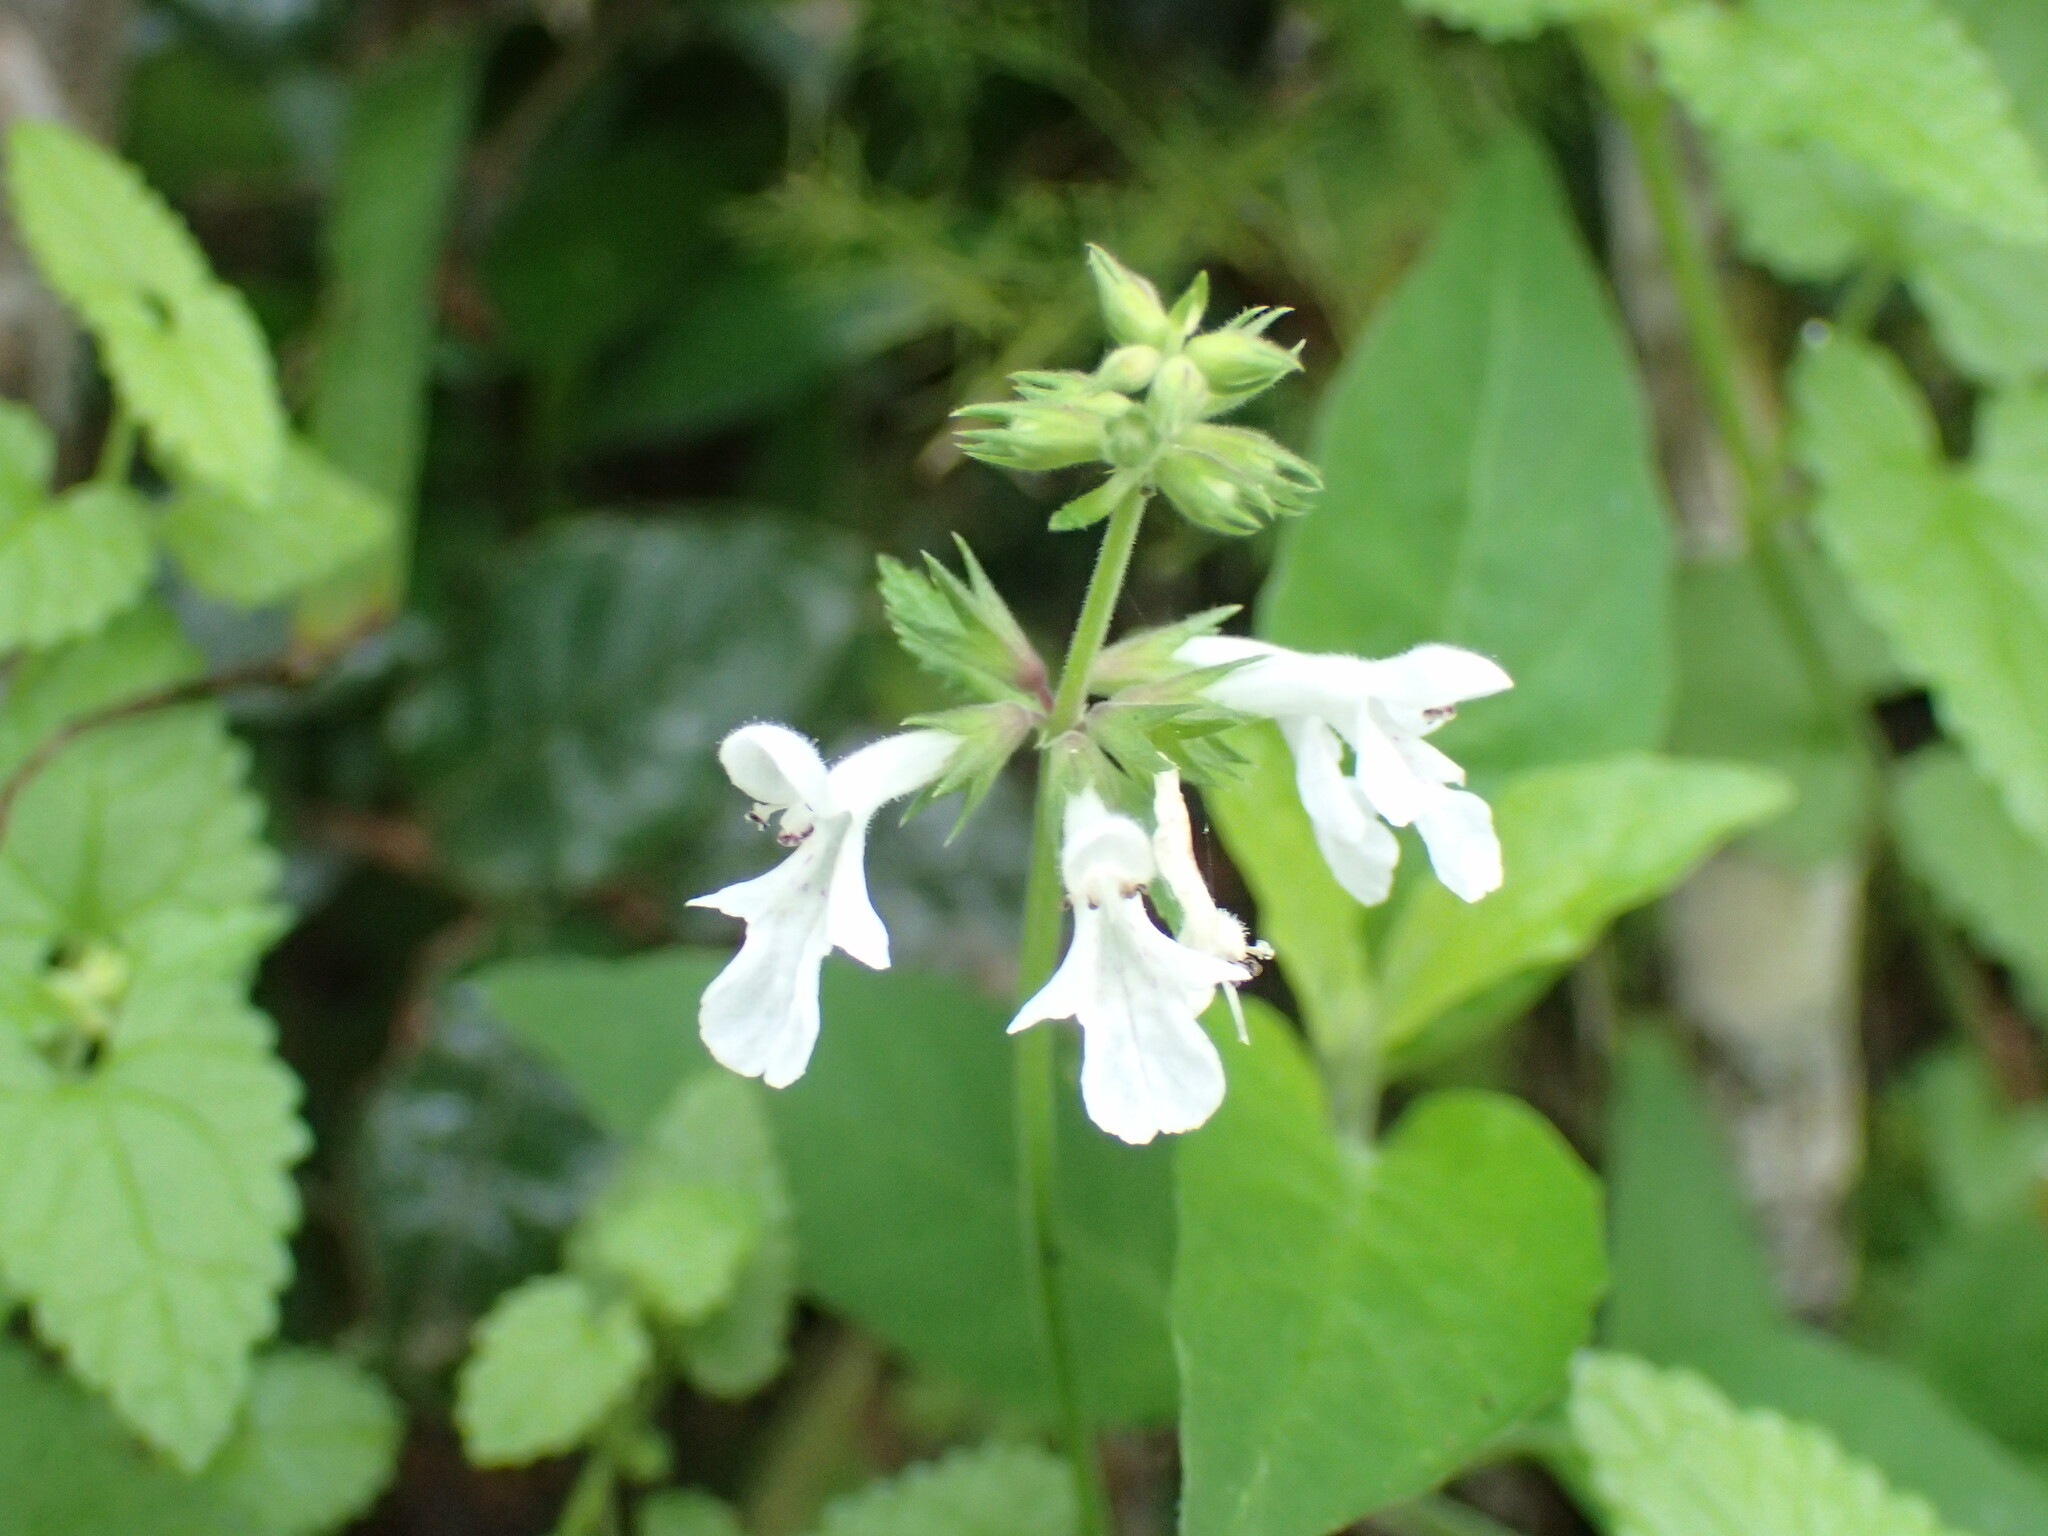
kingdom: Plantae
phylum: Tracheophyta
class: Magnoliopsida
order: Lamiales
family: Lamiaceae
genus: Stachys
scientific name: Stachys aethiopica
